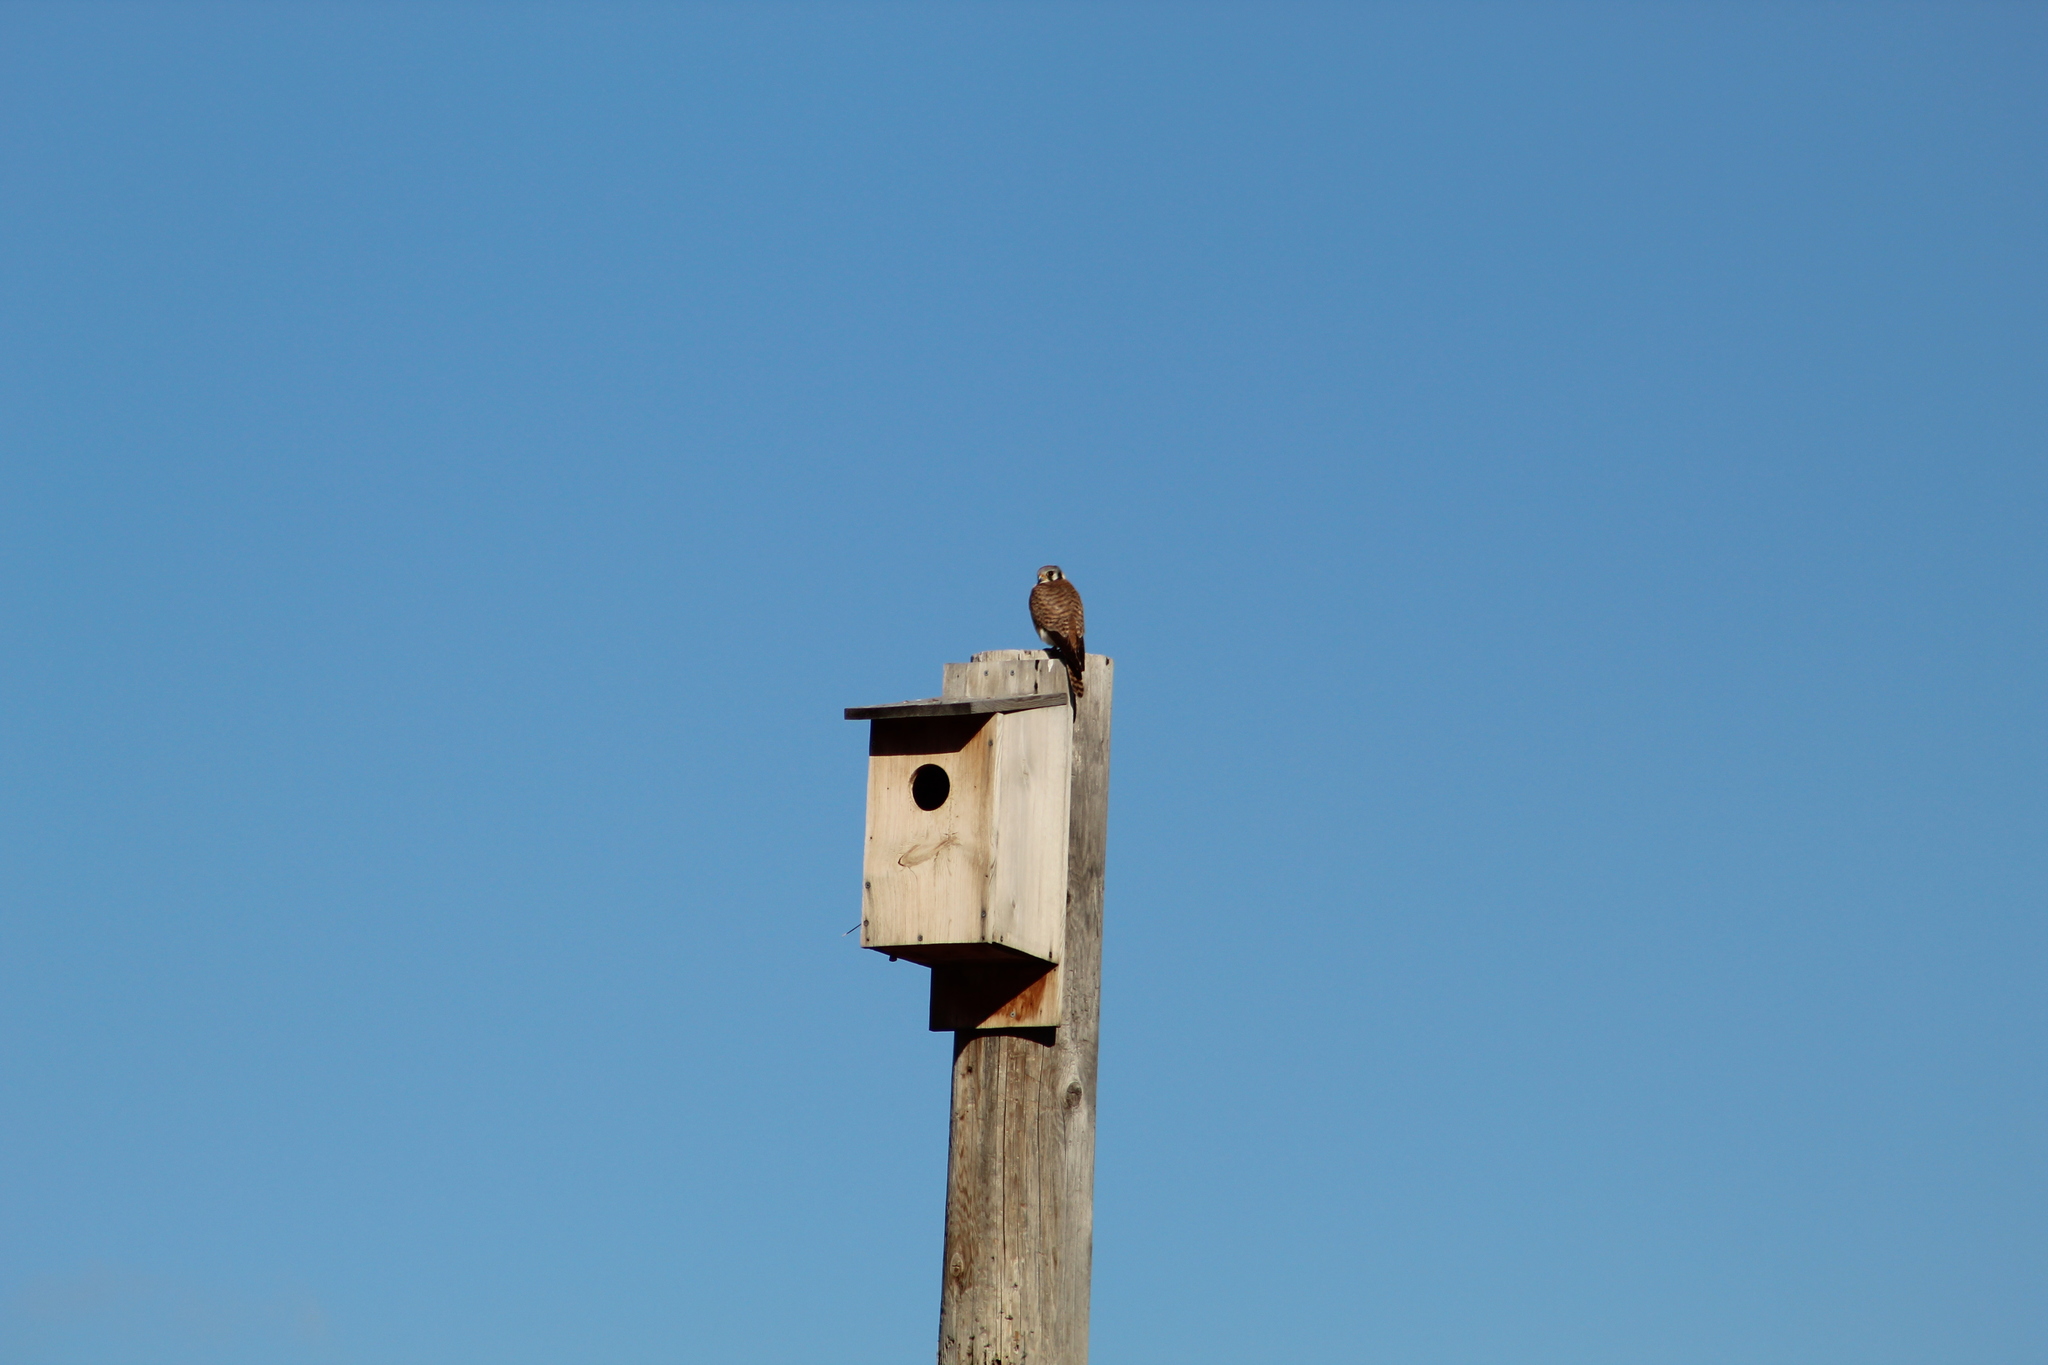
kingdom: Animalia
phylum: Chordata
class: Aves
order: Falconiformes
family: Falconidae
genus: Falco
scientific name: Falco sparverius
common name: American kestrel
